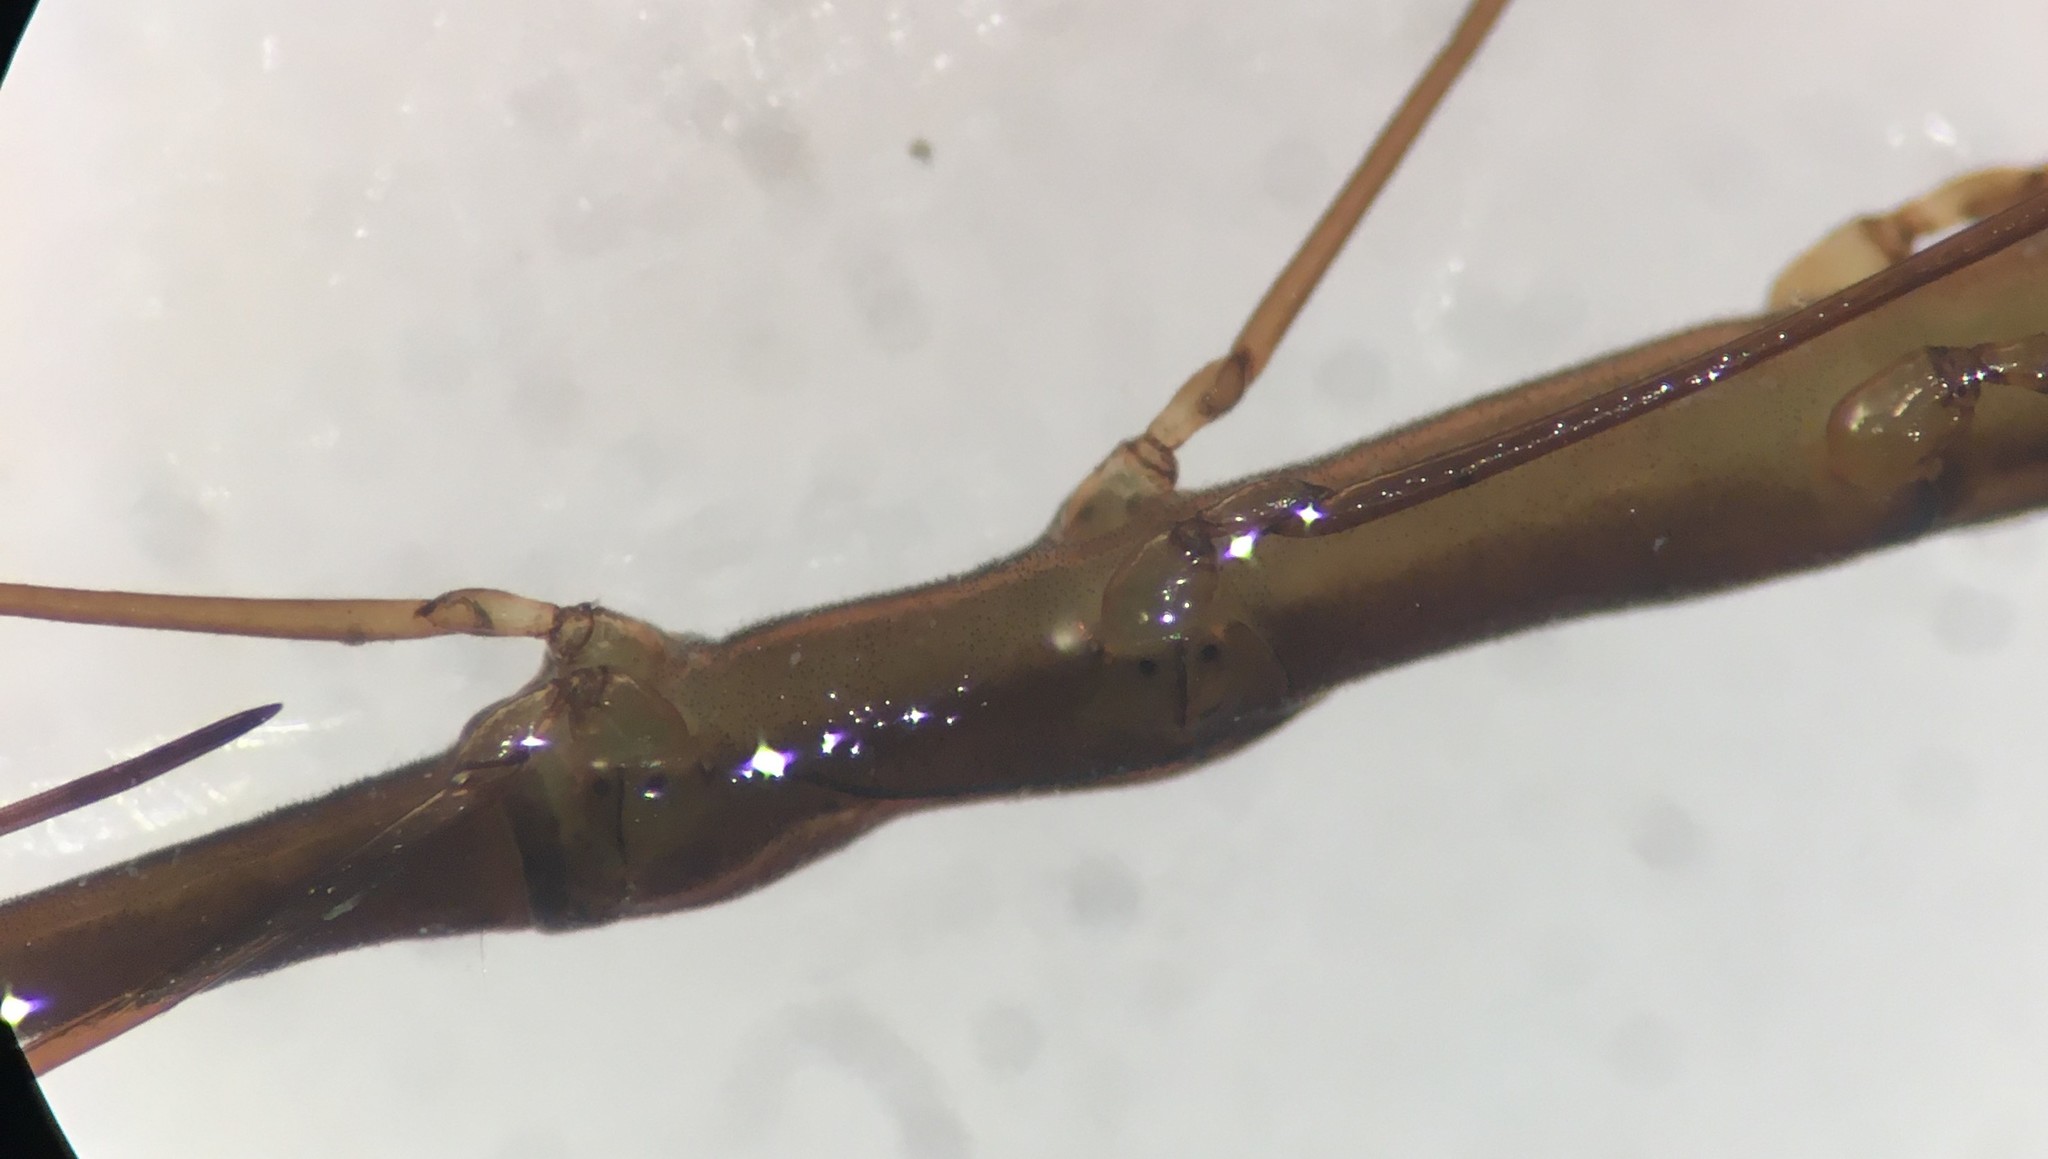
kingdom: Animalia
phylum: Arthropoda
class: Insecta
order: Hemiptera
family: Hydrometridae
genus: Hydrometra
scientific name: Hydrometra australis
